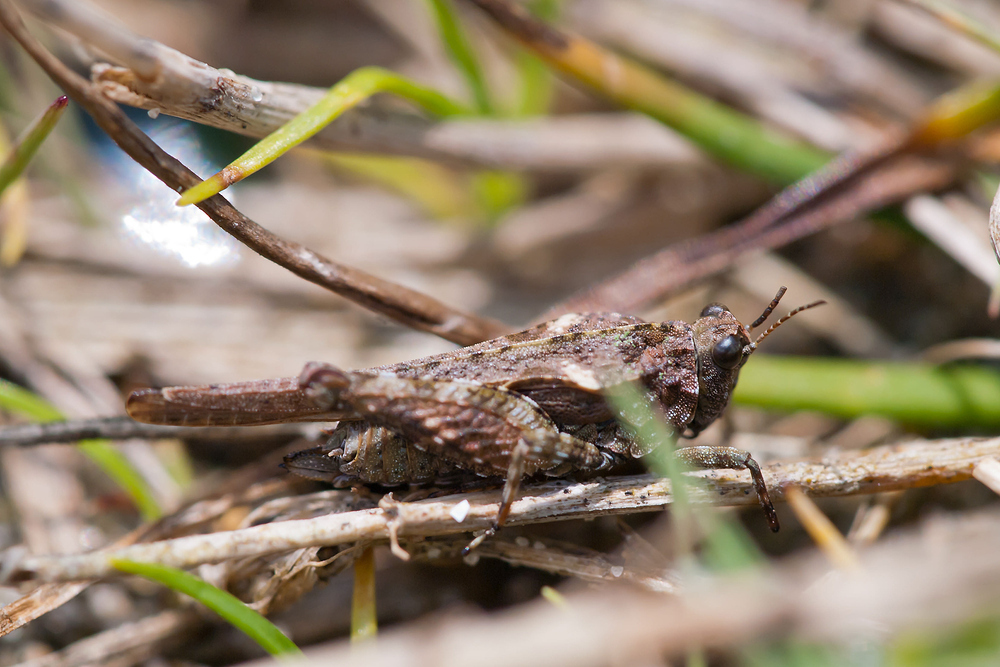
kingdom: Animalia
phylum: Arthropoda
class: Insecta
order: Orthoptera
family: Tetrigidae
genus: Tetrix
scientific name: Tetrix ceperoi
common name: Cepero's ground-hopper
